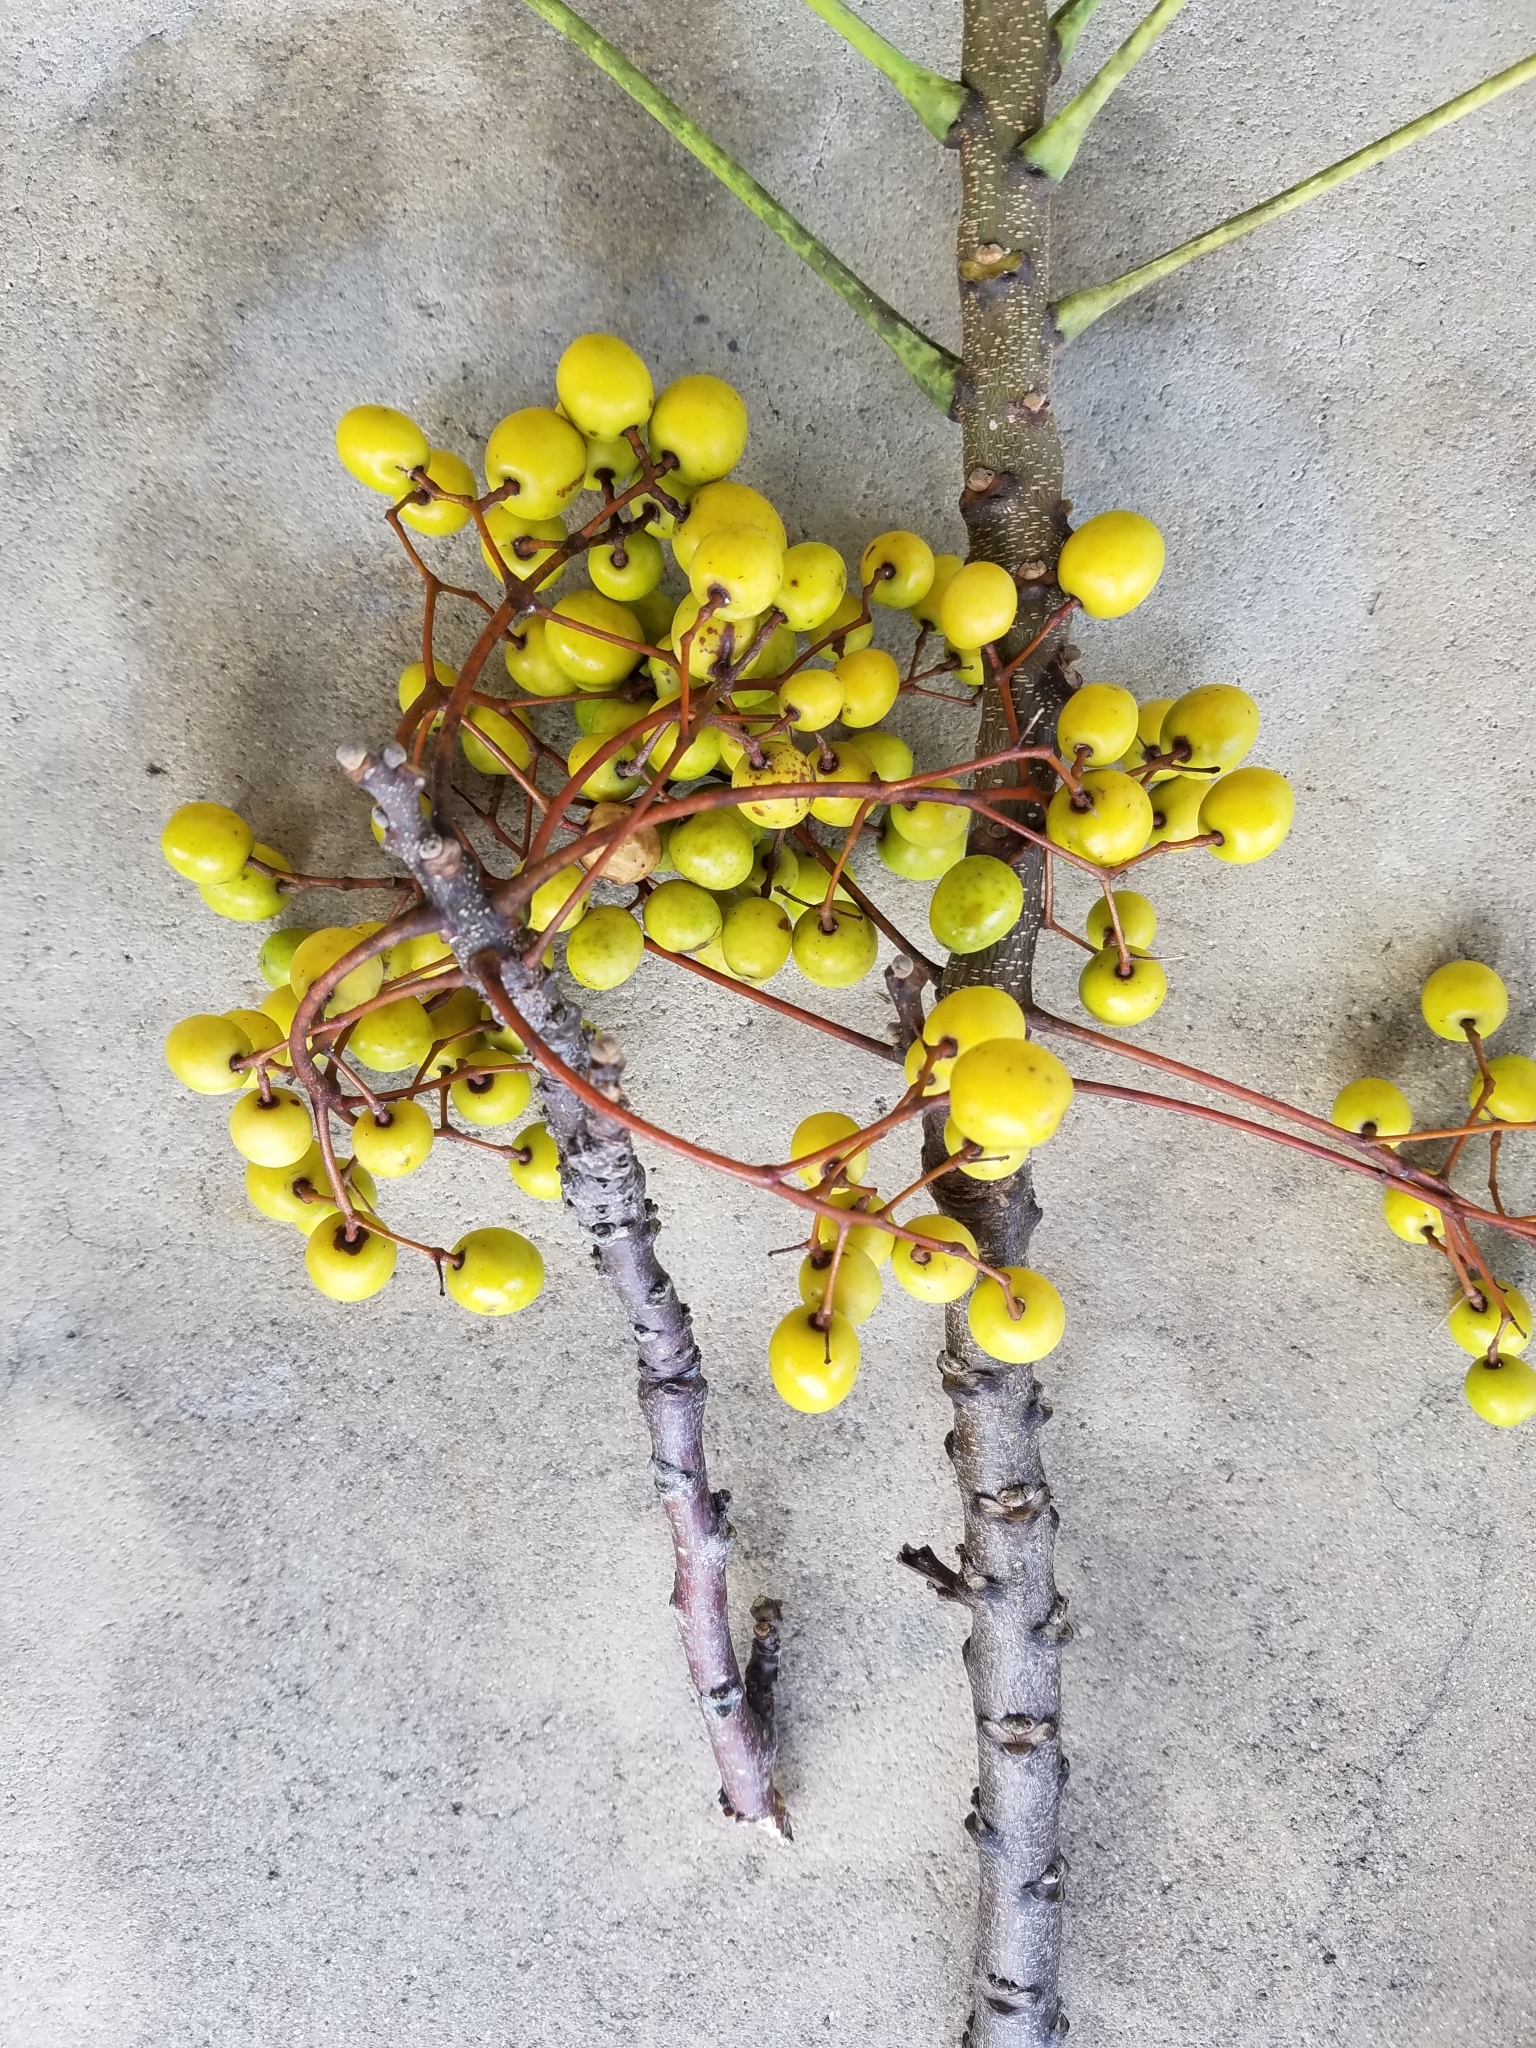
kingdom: Plantae
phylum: Tracheophyta
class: Magnoliopsida
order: Sapindales
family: Meliaceae
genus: Melia
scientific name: Melia azedarach
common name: Chinaberrytree
